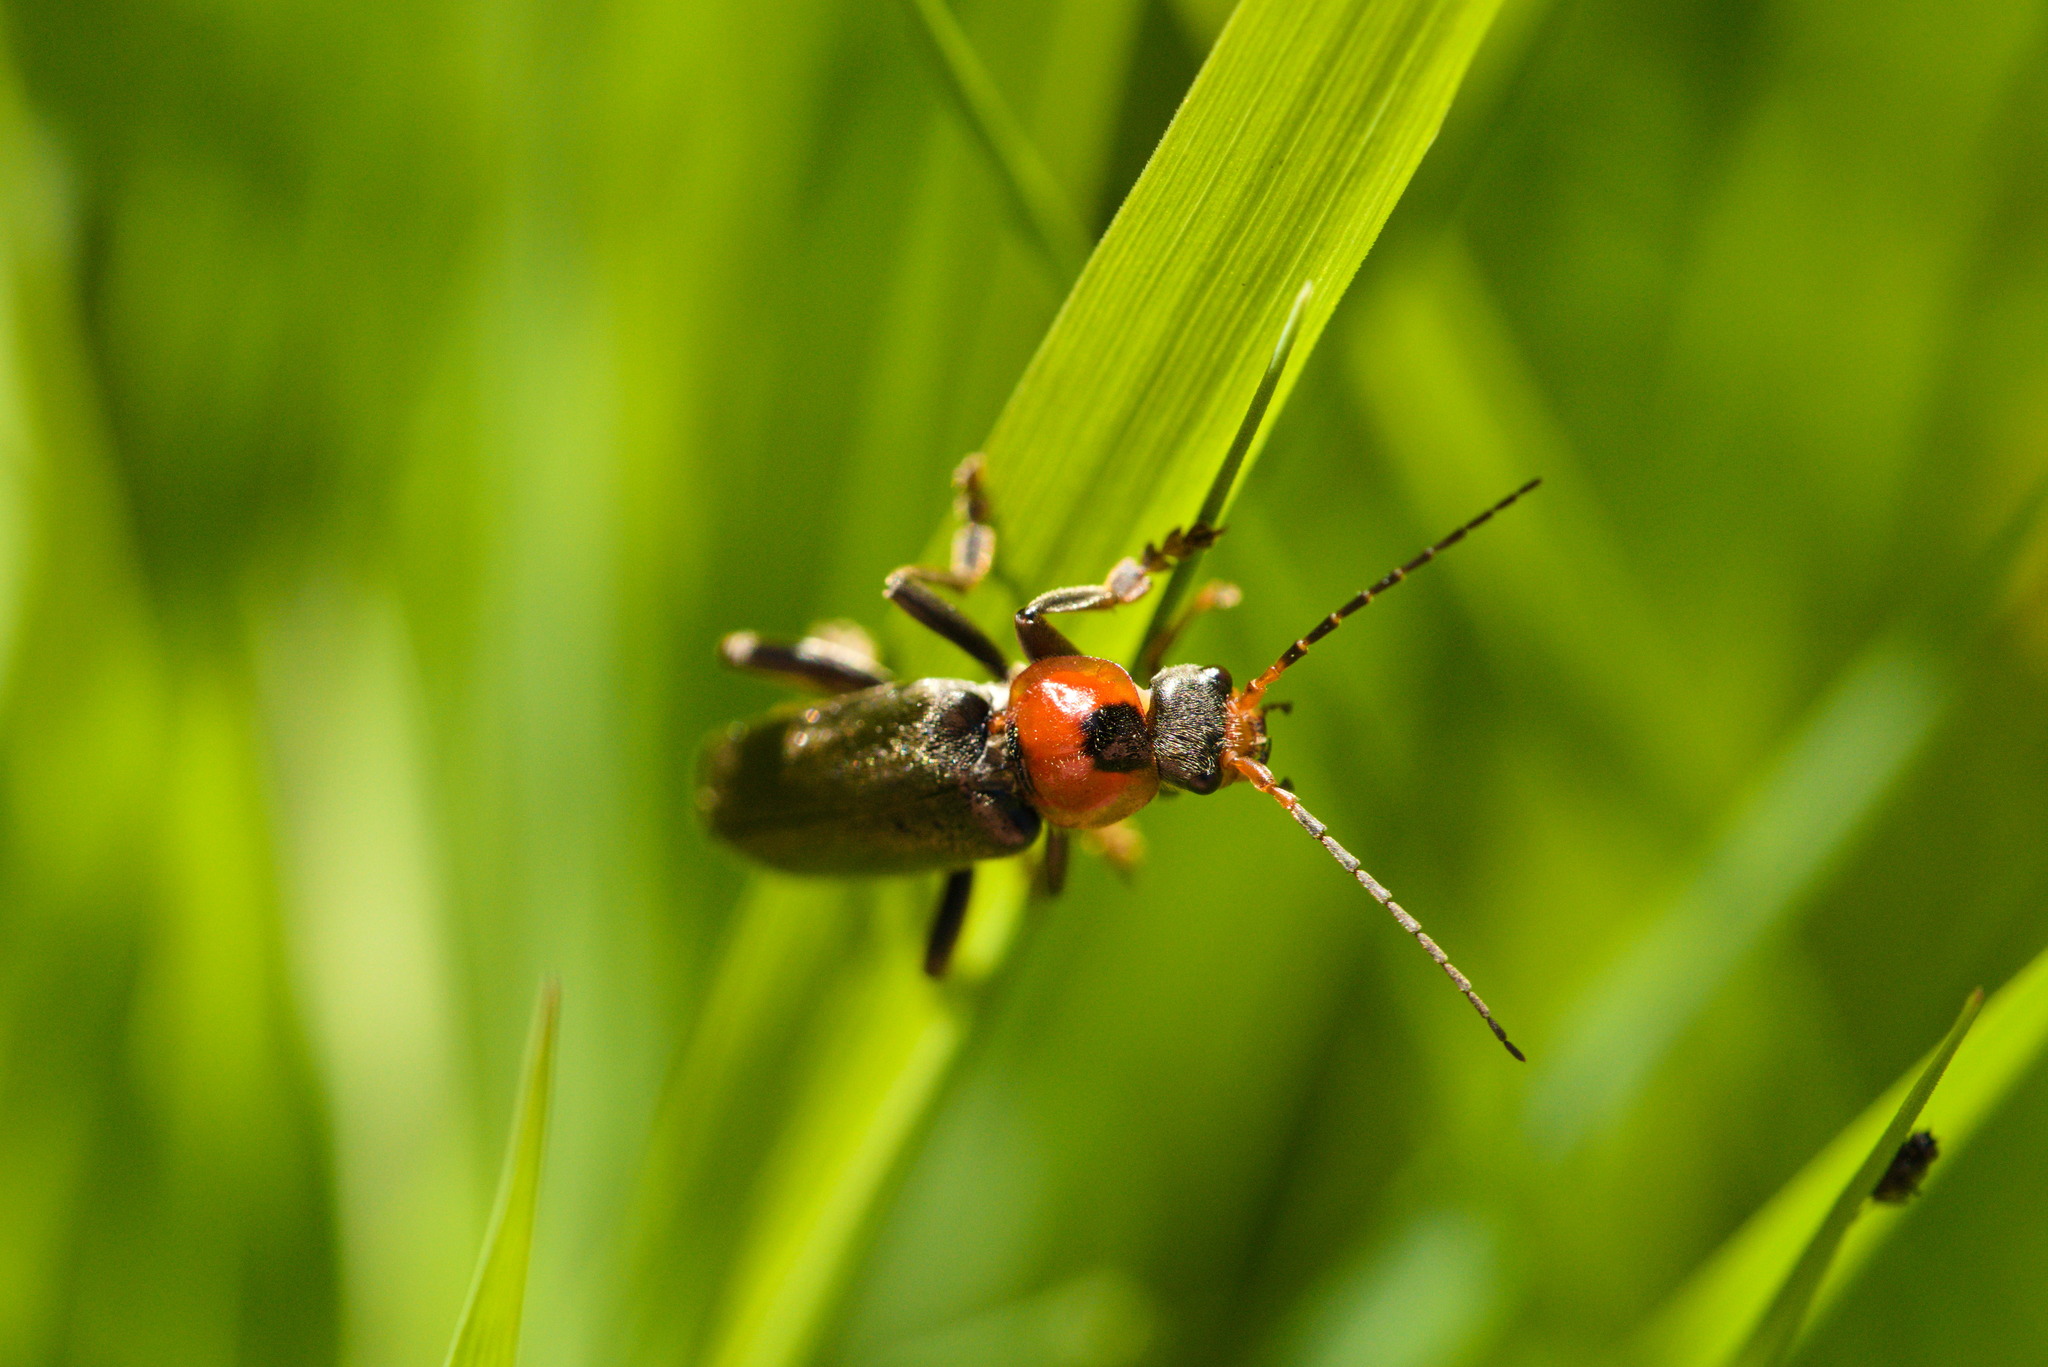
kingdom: Animalia
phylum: Arthropoda
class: Insecta
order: Coleoptera
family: Cantharidae
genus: Cantharis
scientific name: Cantharis fusca
